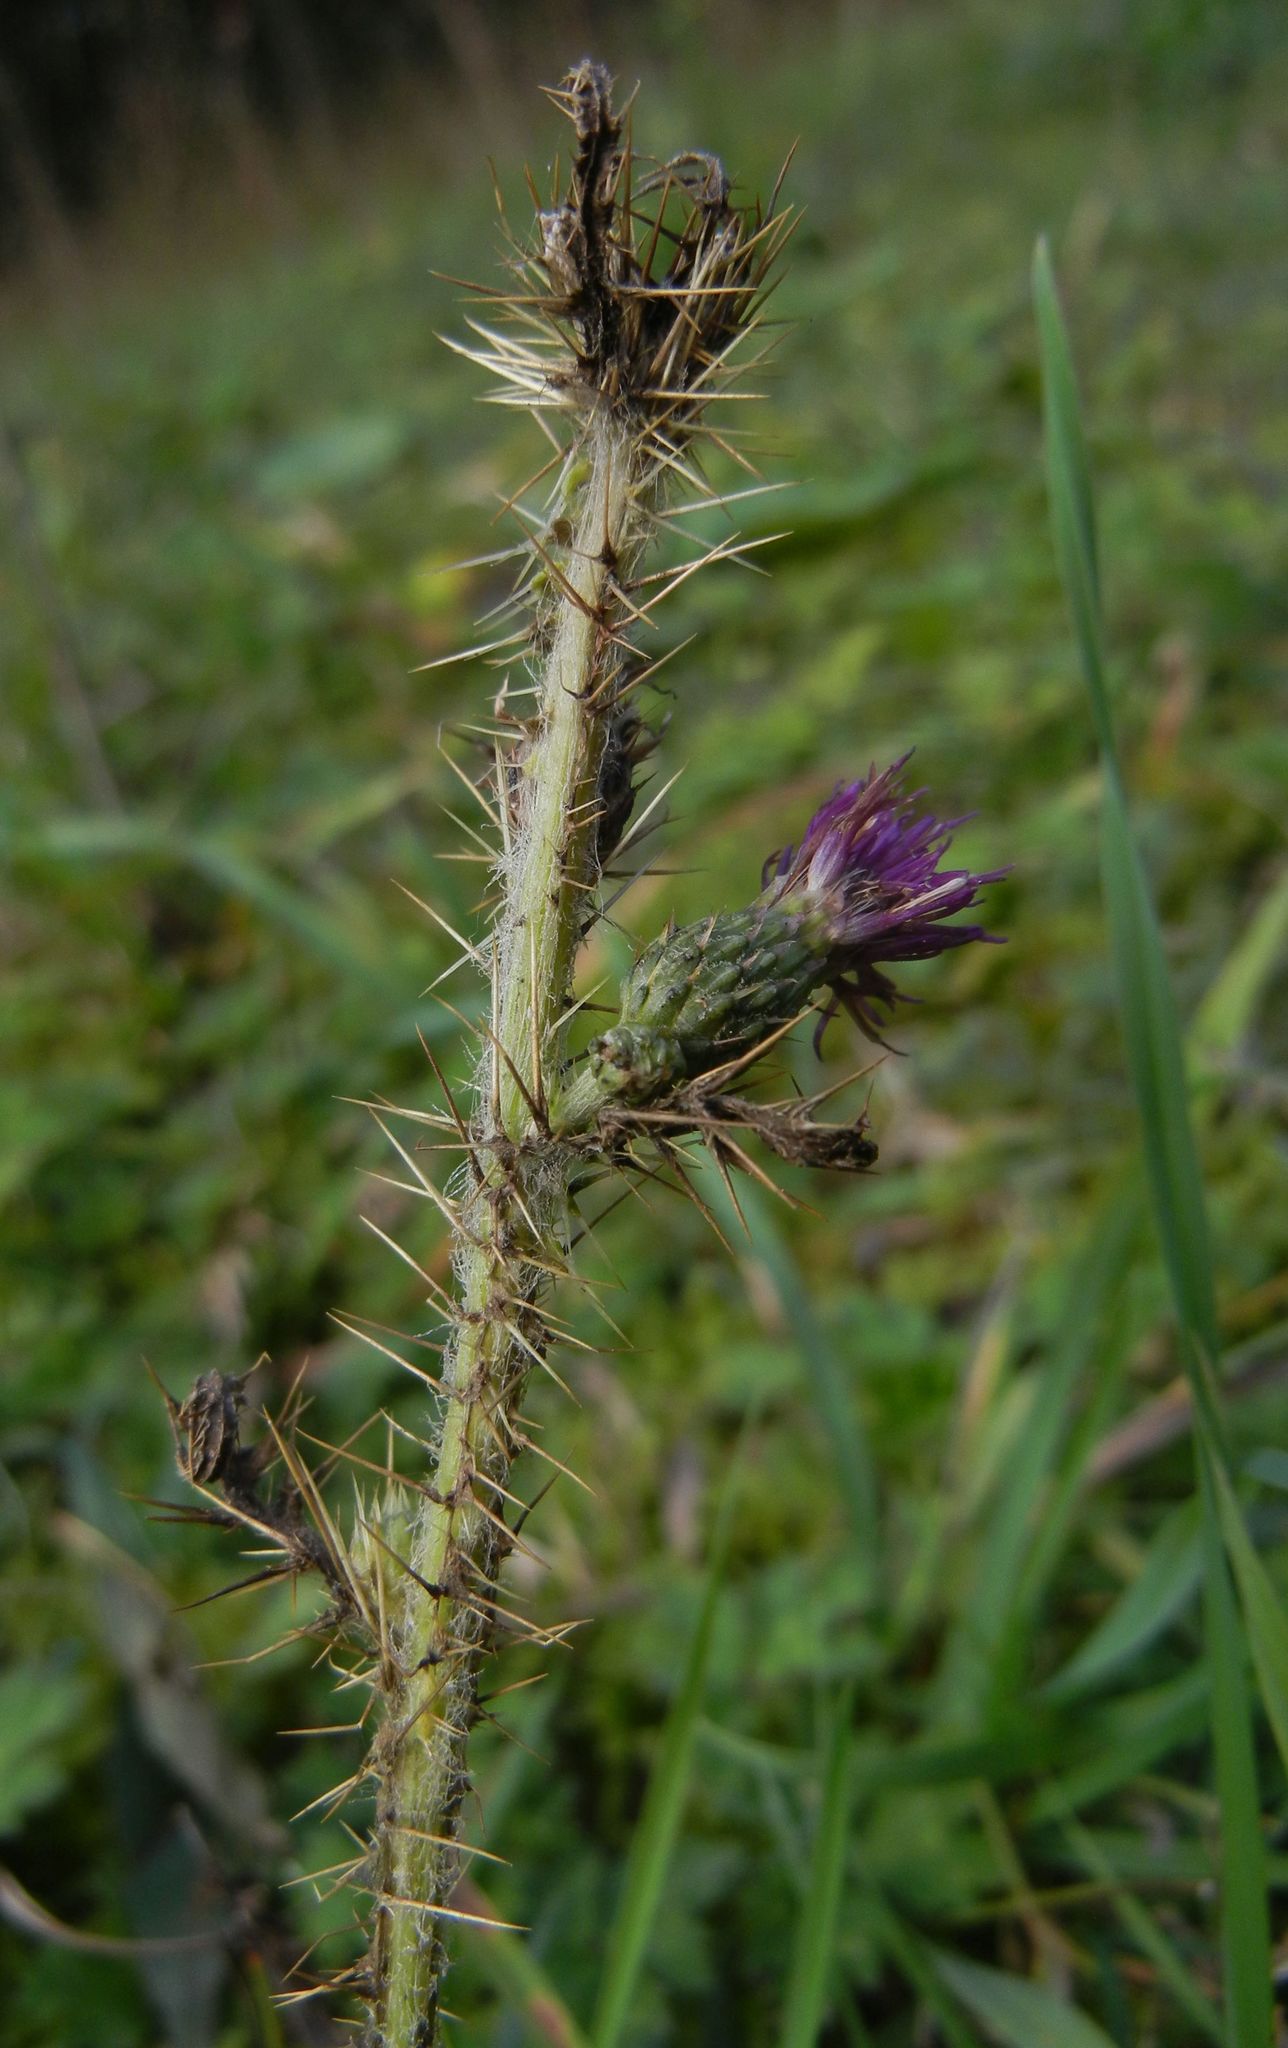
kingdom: Plantae
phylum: Tracheophyta
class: Magnoliopsida
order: Asterales
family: Asteraceae
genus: Cirsium
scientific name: Cirsium palustre
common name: Marsh thistle
